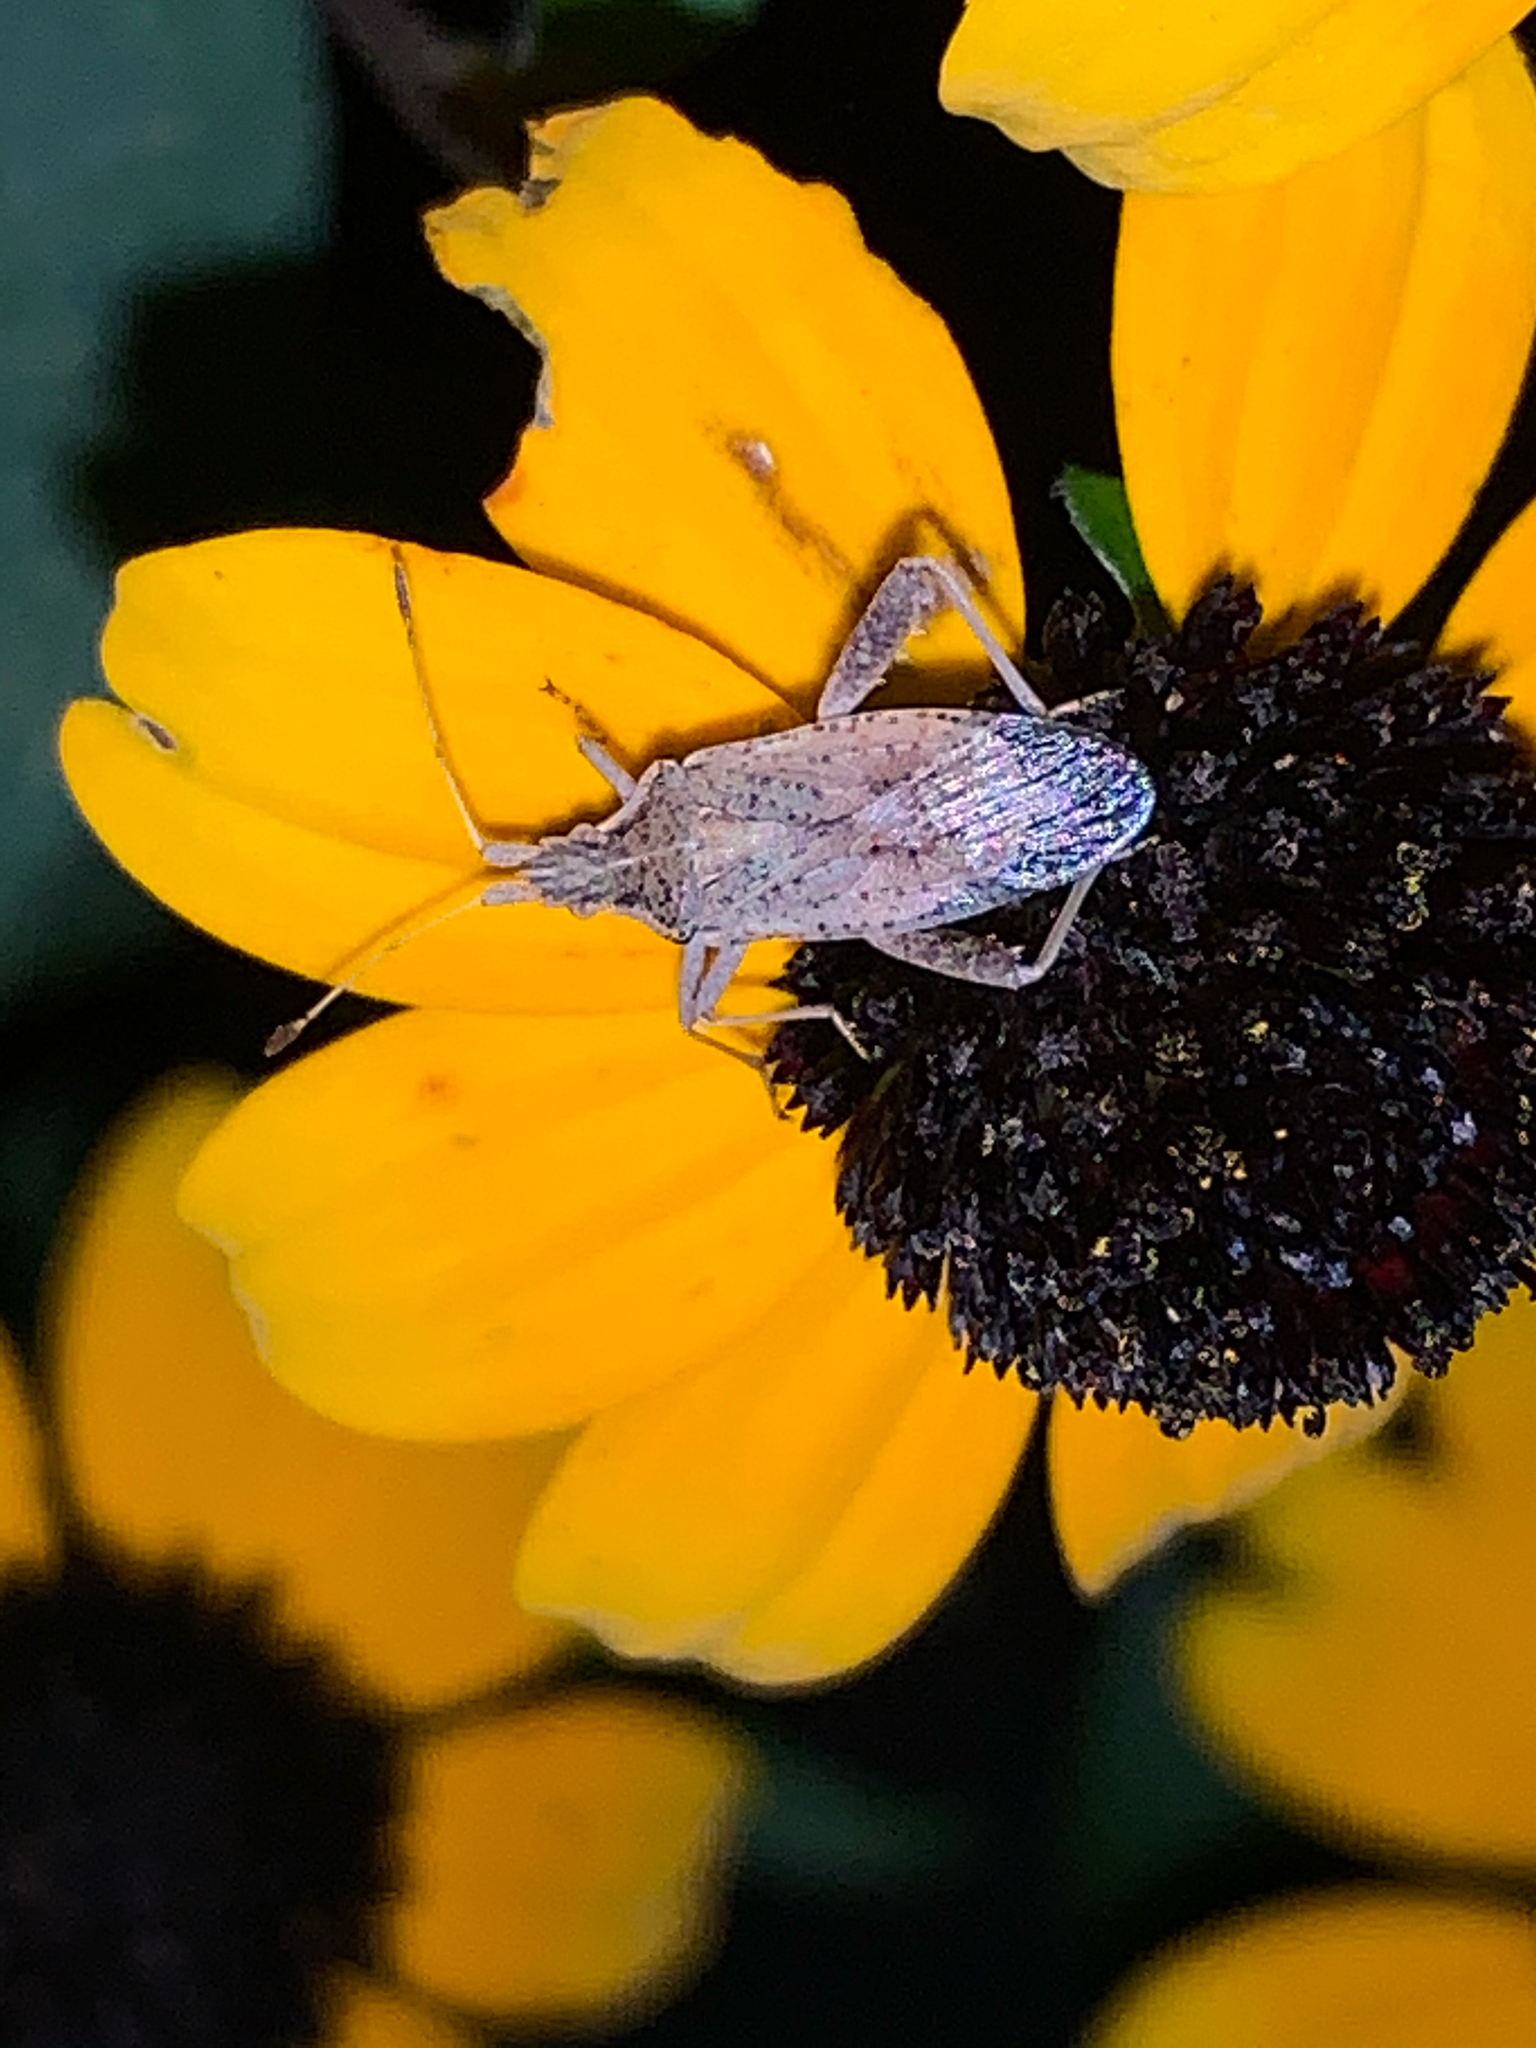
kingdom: Animalia
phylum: Arthropoda
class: Insecta
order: Hemiptera
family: Rhopalidae
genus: Harmostes
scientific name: Harmostes reflexulus
